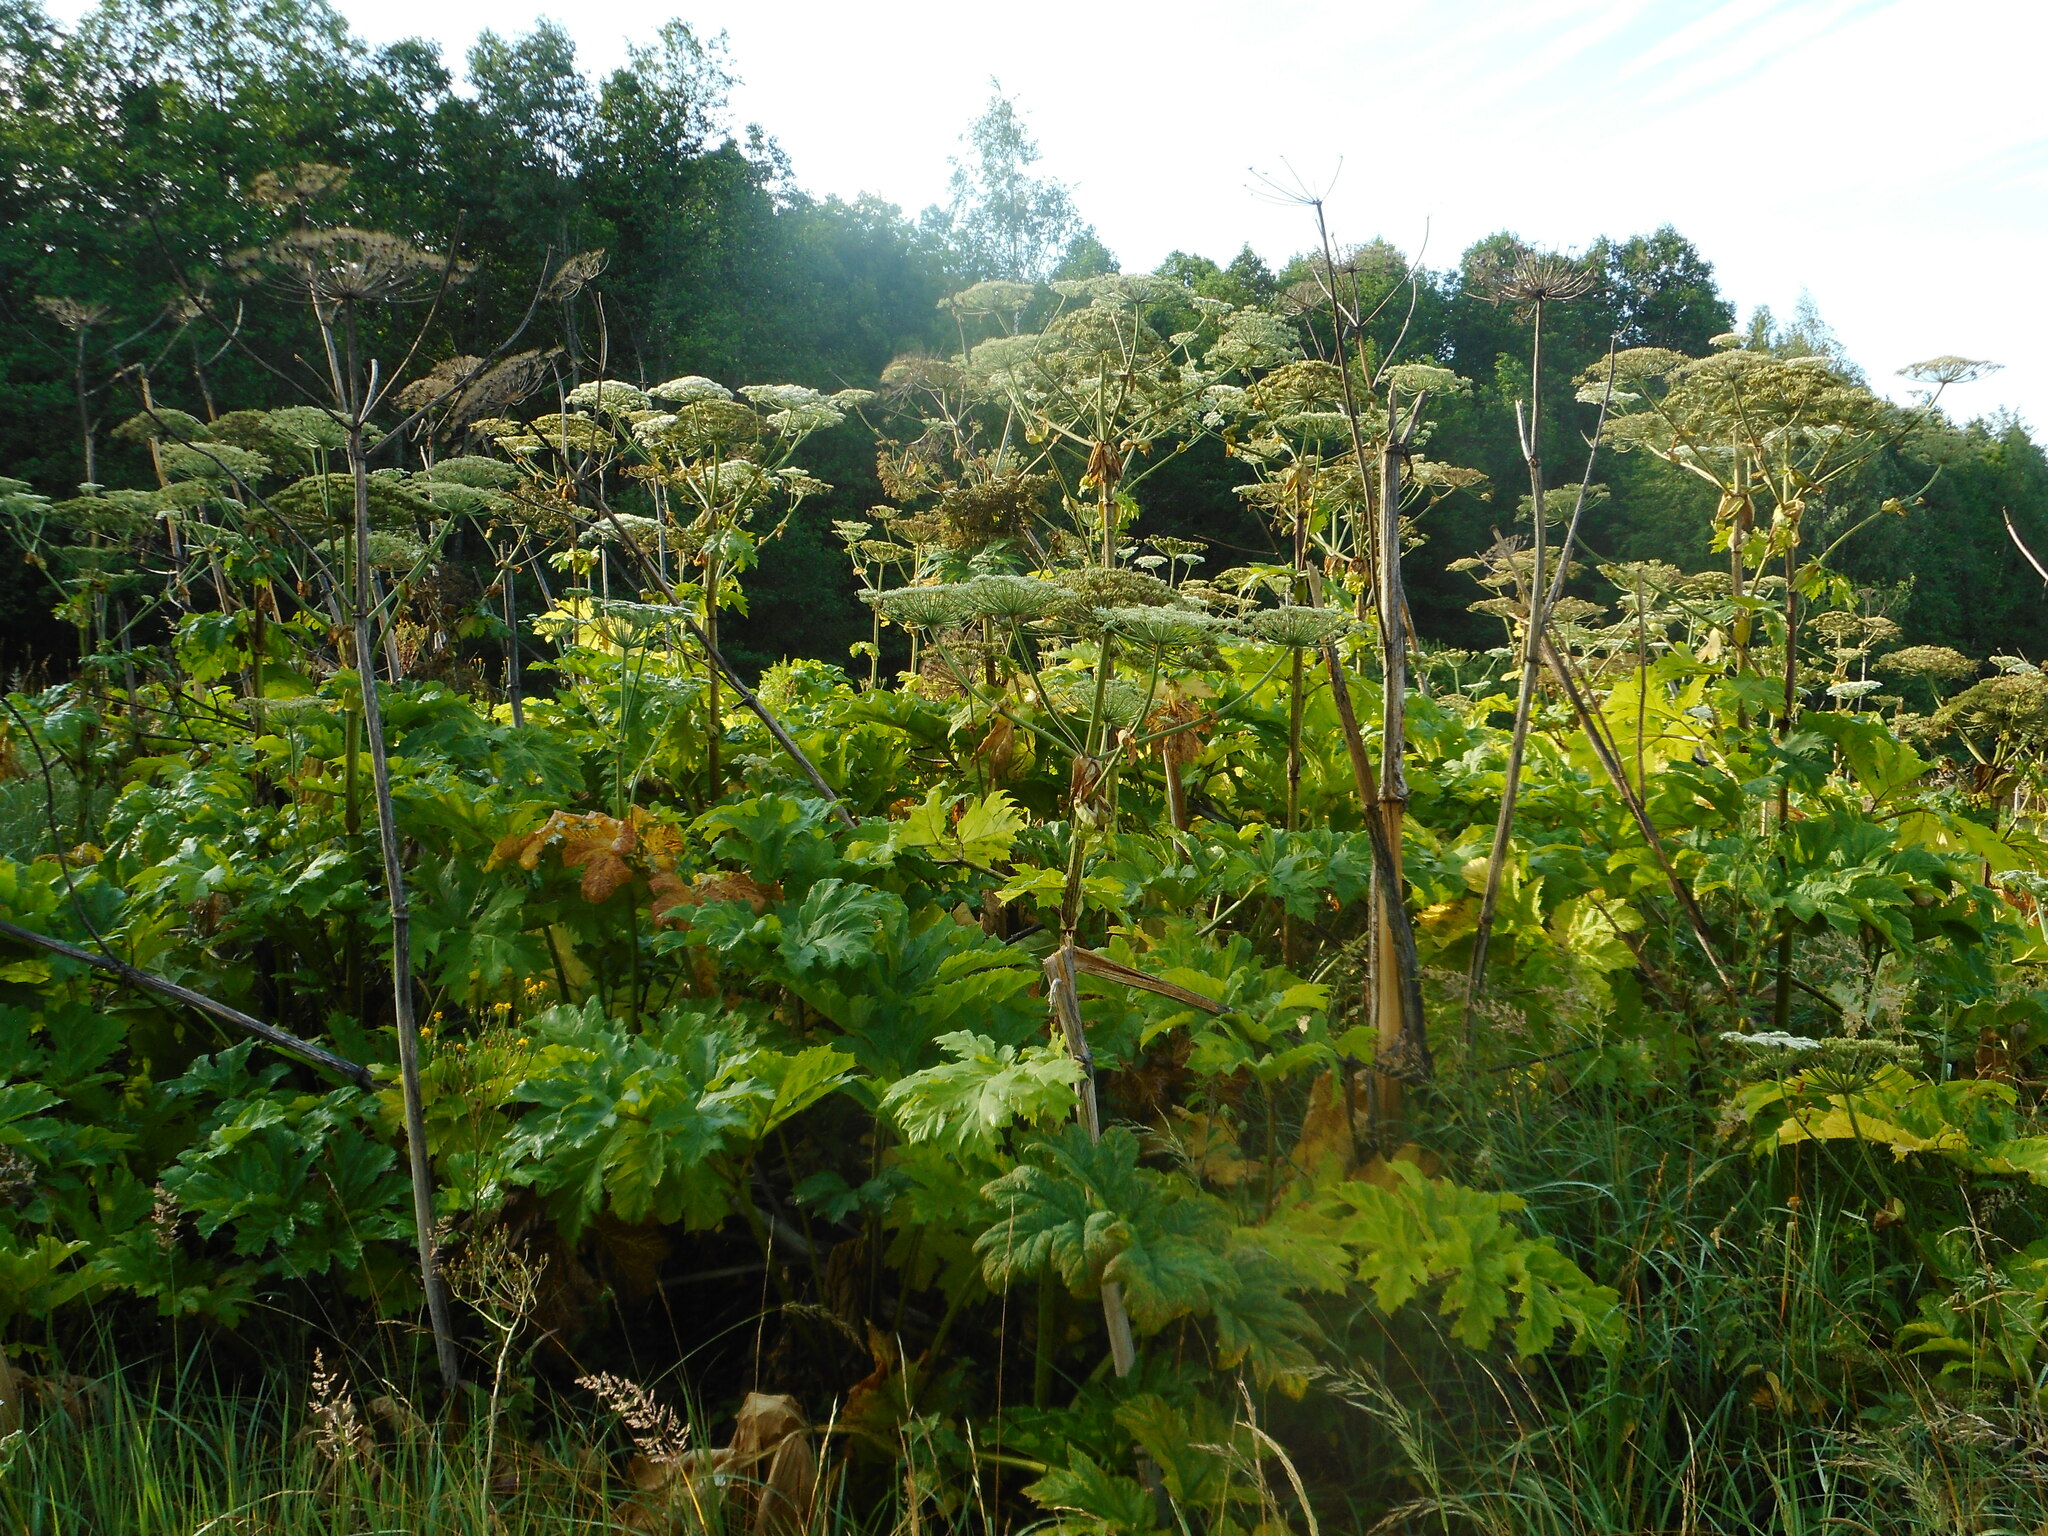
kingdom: Plantae
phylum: Tracheophyta
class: Magnoliopsida
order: Apiales
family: Apiaceae
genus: Heracleum
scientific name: Heracleum sosnowskyi
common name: Sosnowsky's hogweed
